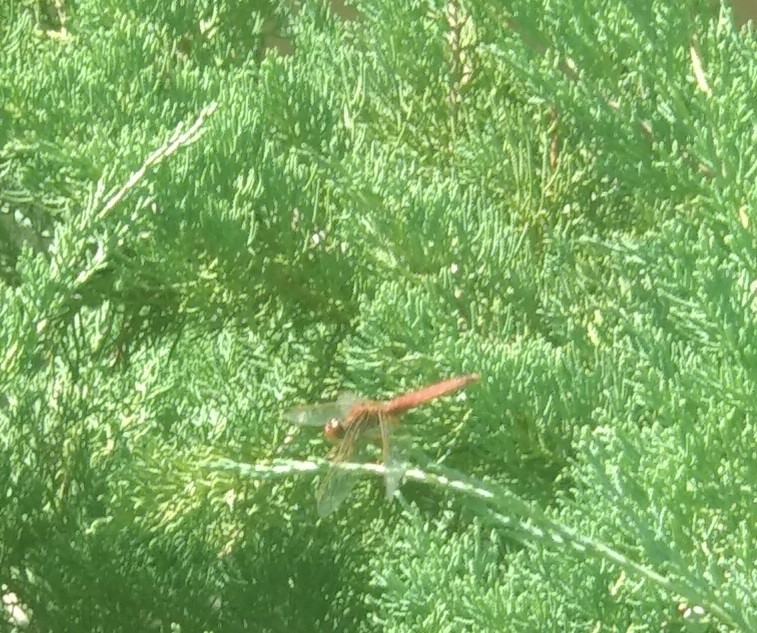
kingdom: Animalia
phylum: Arthropoda
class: Insecta
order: Odonata
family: Libellulidae
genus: Crocothemis
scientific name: Crocothemis erythraea
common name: Scarlet dragonfly
